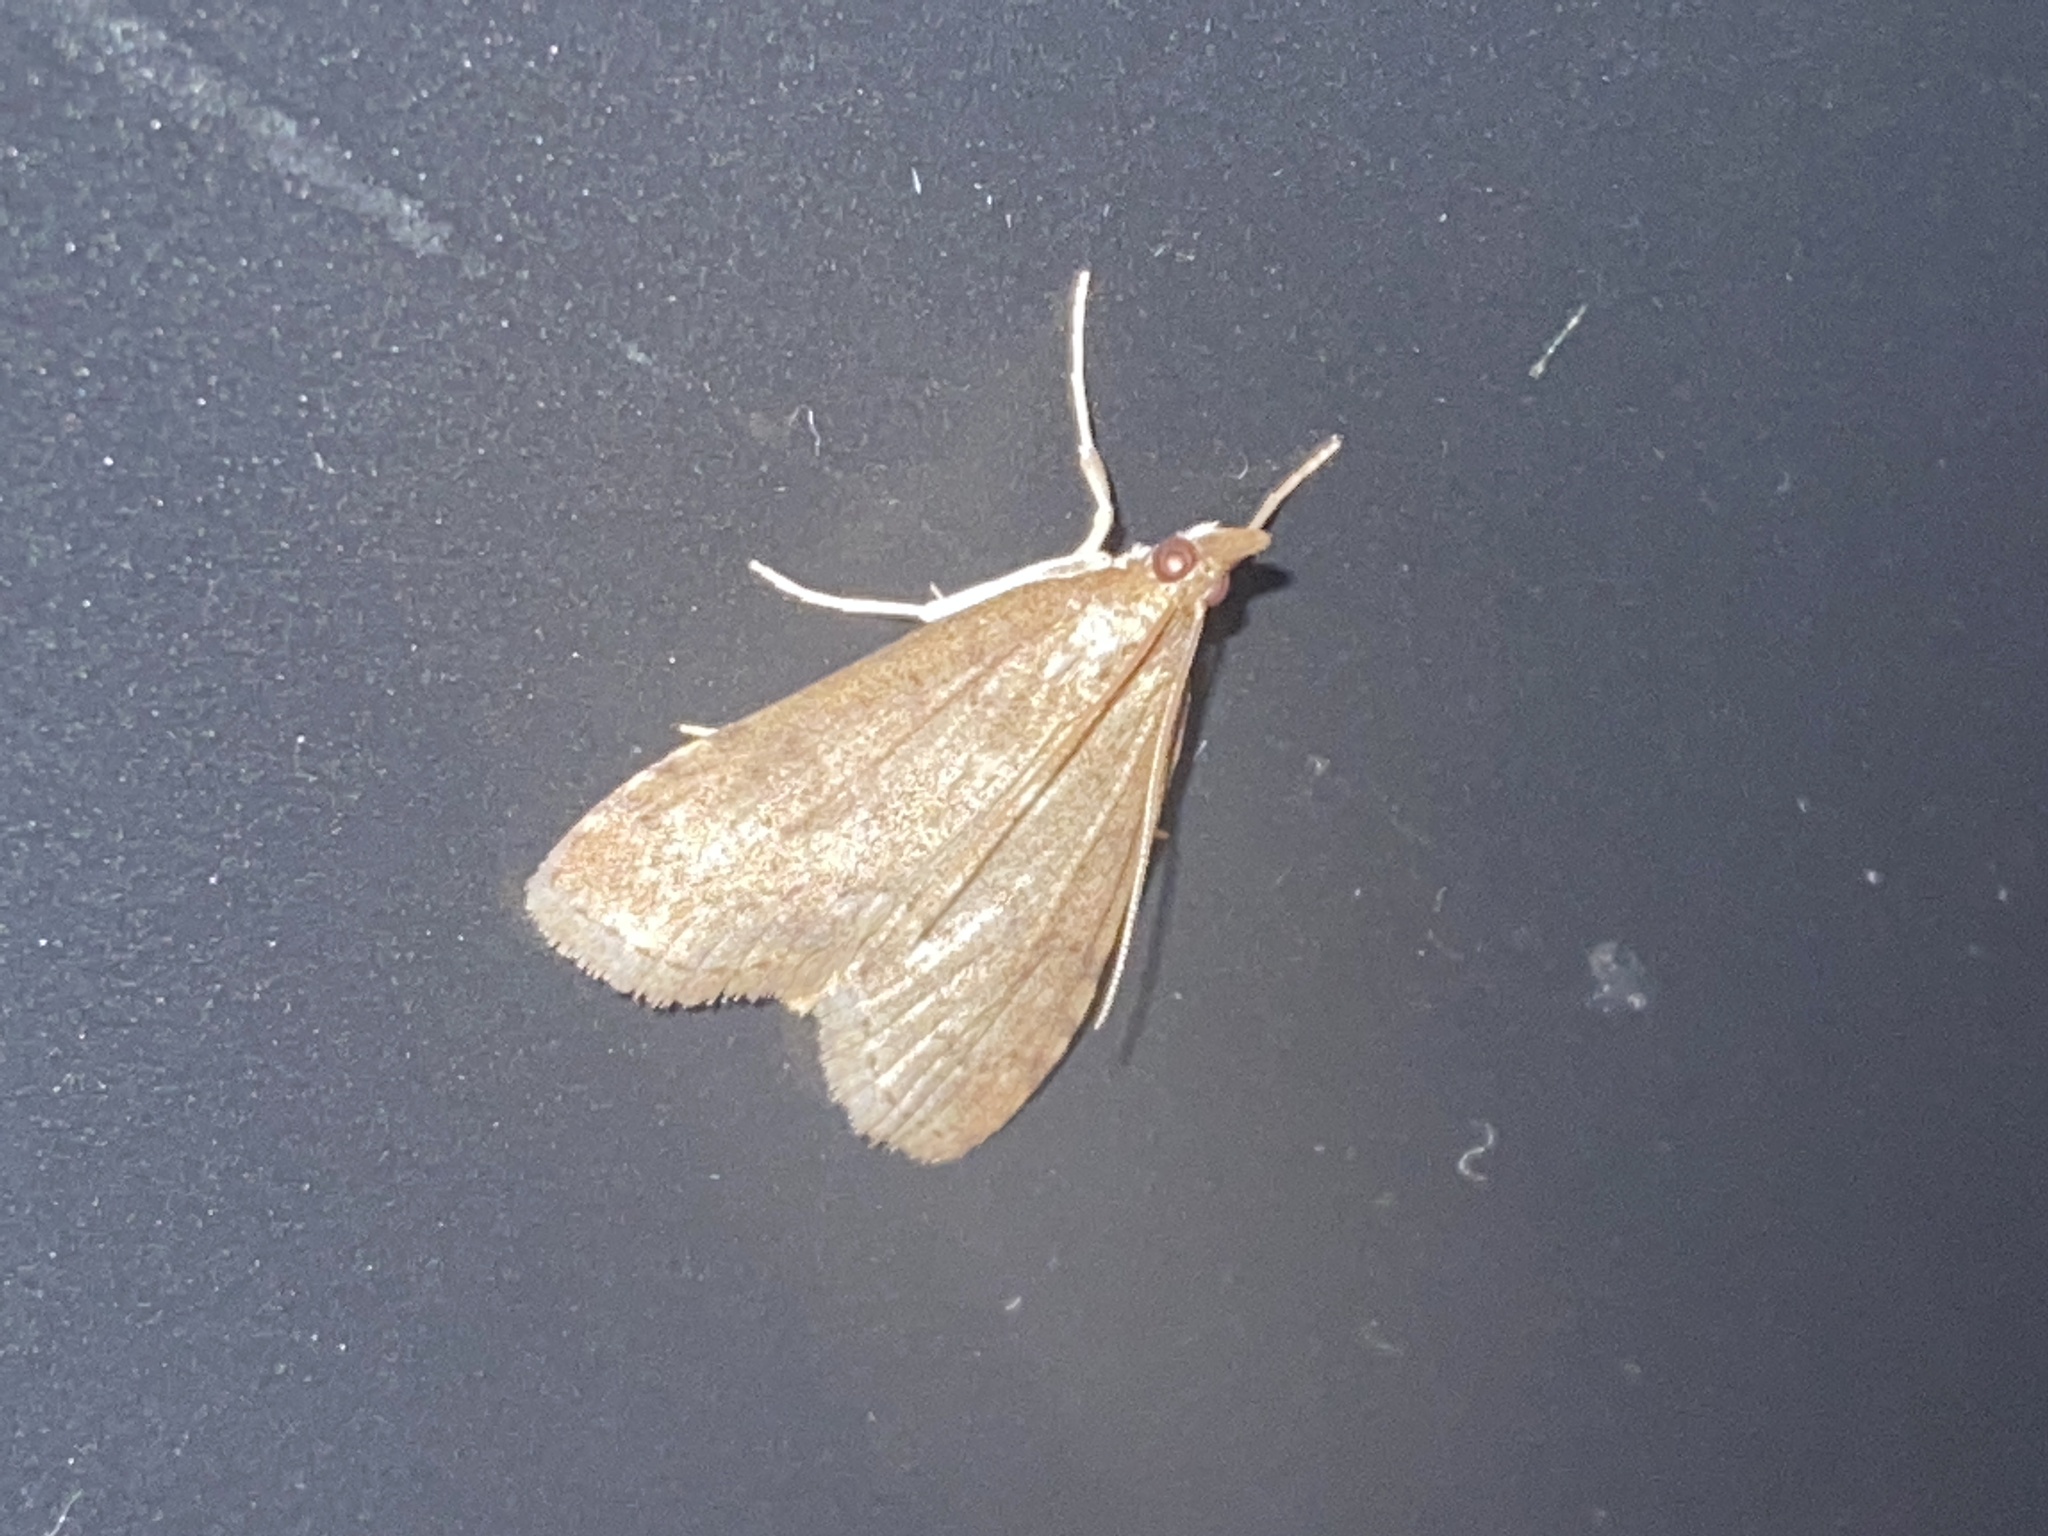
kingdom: Animalia
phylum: Arthropoda
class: Insecta
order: Lepidoptera
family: Crambidae
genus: Udea
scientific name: Udea prunalis
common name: Dusky pearl
